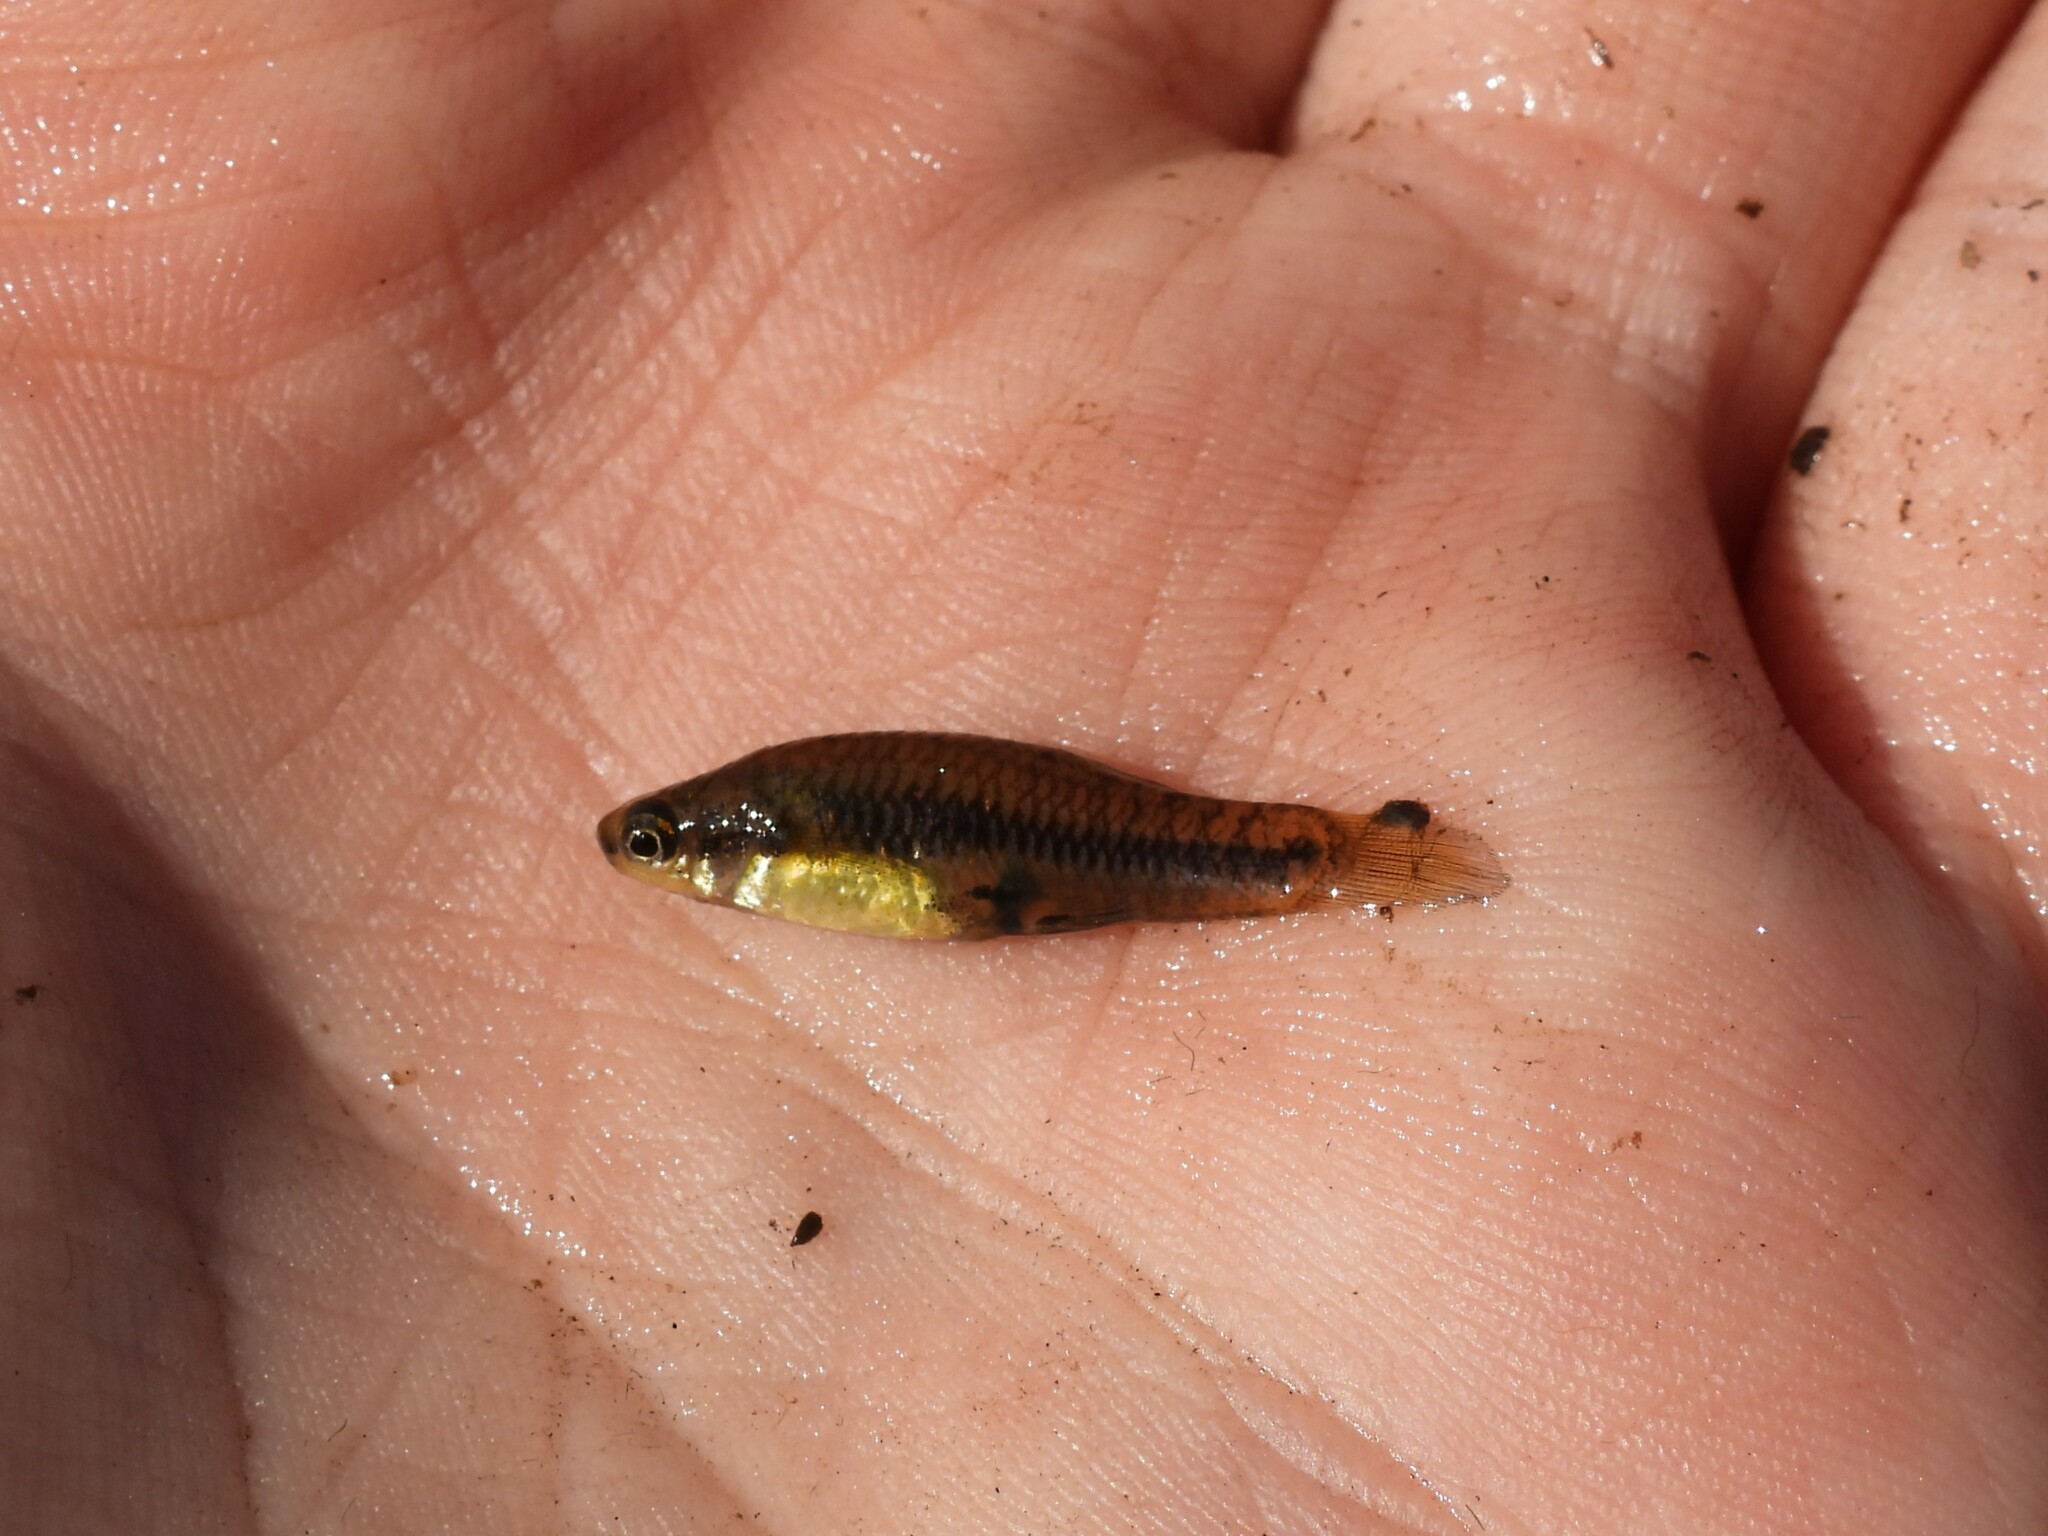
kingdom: Animalia
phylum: Chordata
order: Cyprinodontiformes
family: Poeciliidae
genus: Heterandria
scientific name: Heterandria formosa
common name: Least killifish
